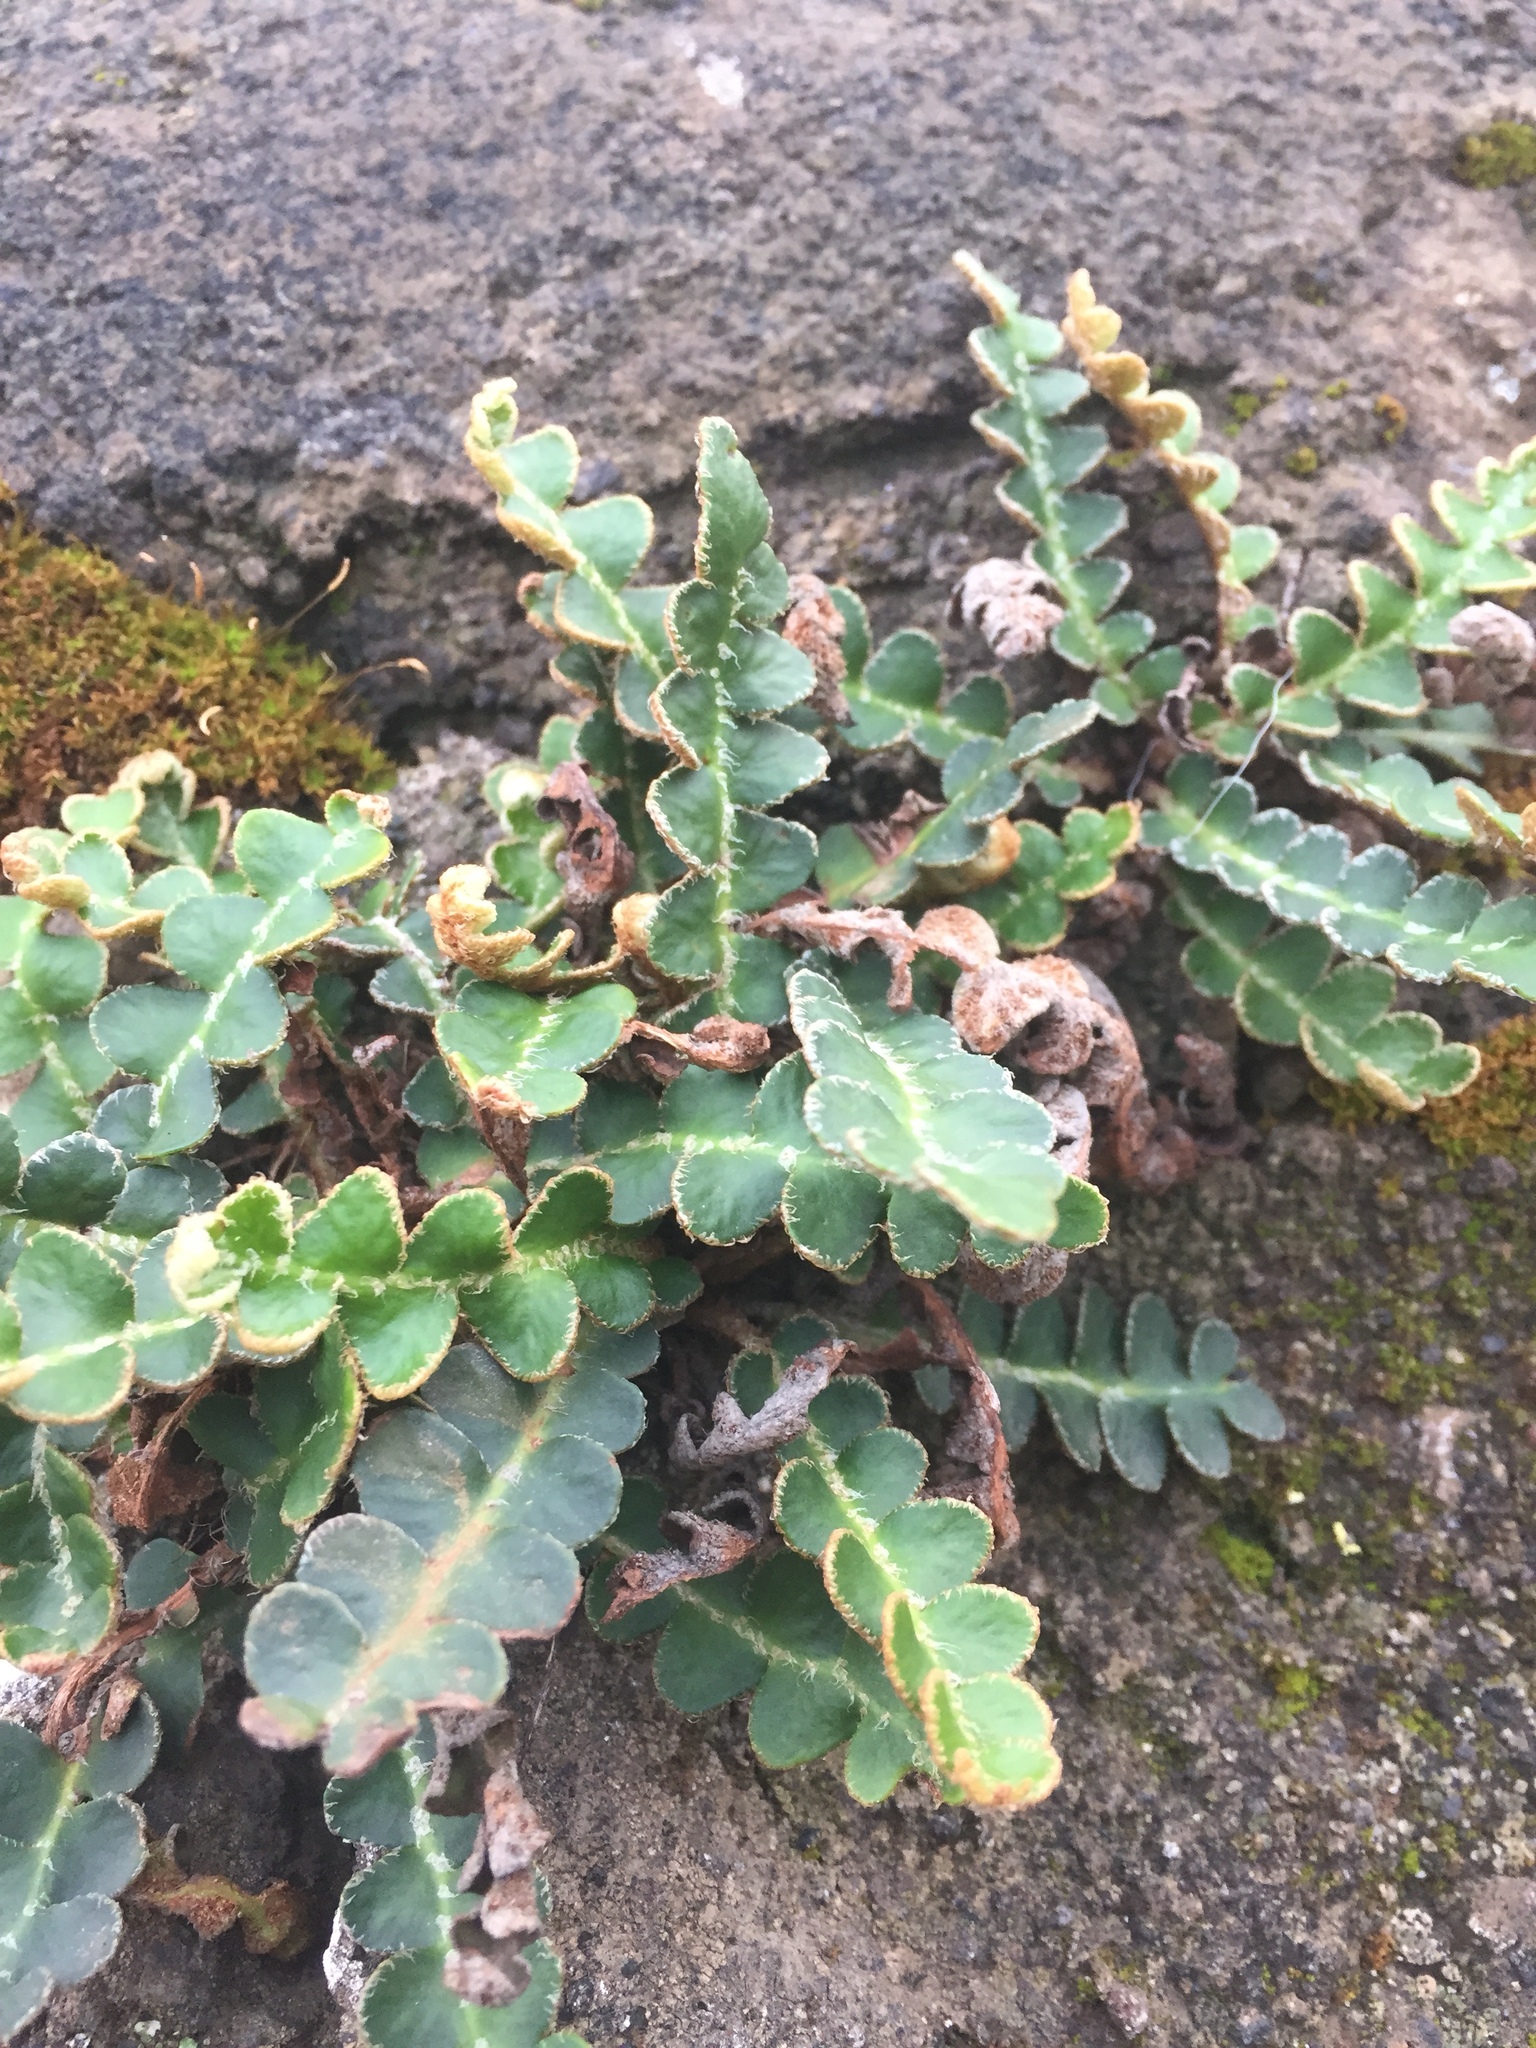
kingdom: Plantae
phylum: Tracheophyta
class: Polypodiopsida
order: Polypodiales
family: Aspleniaceae
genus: Asplenium
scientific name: Asplenium ceterach
